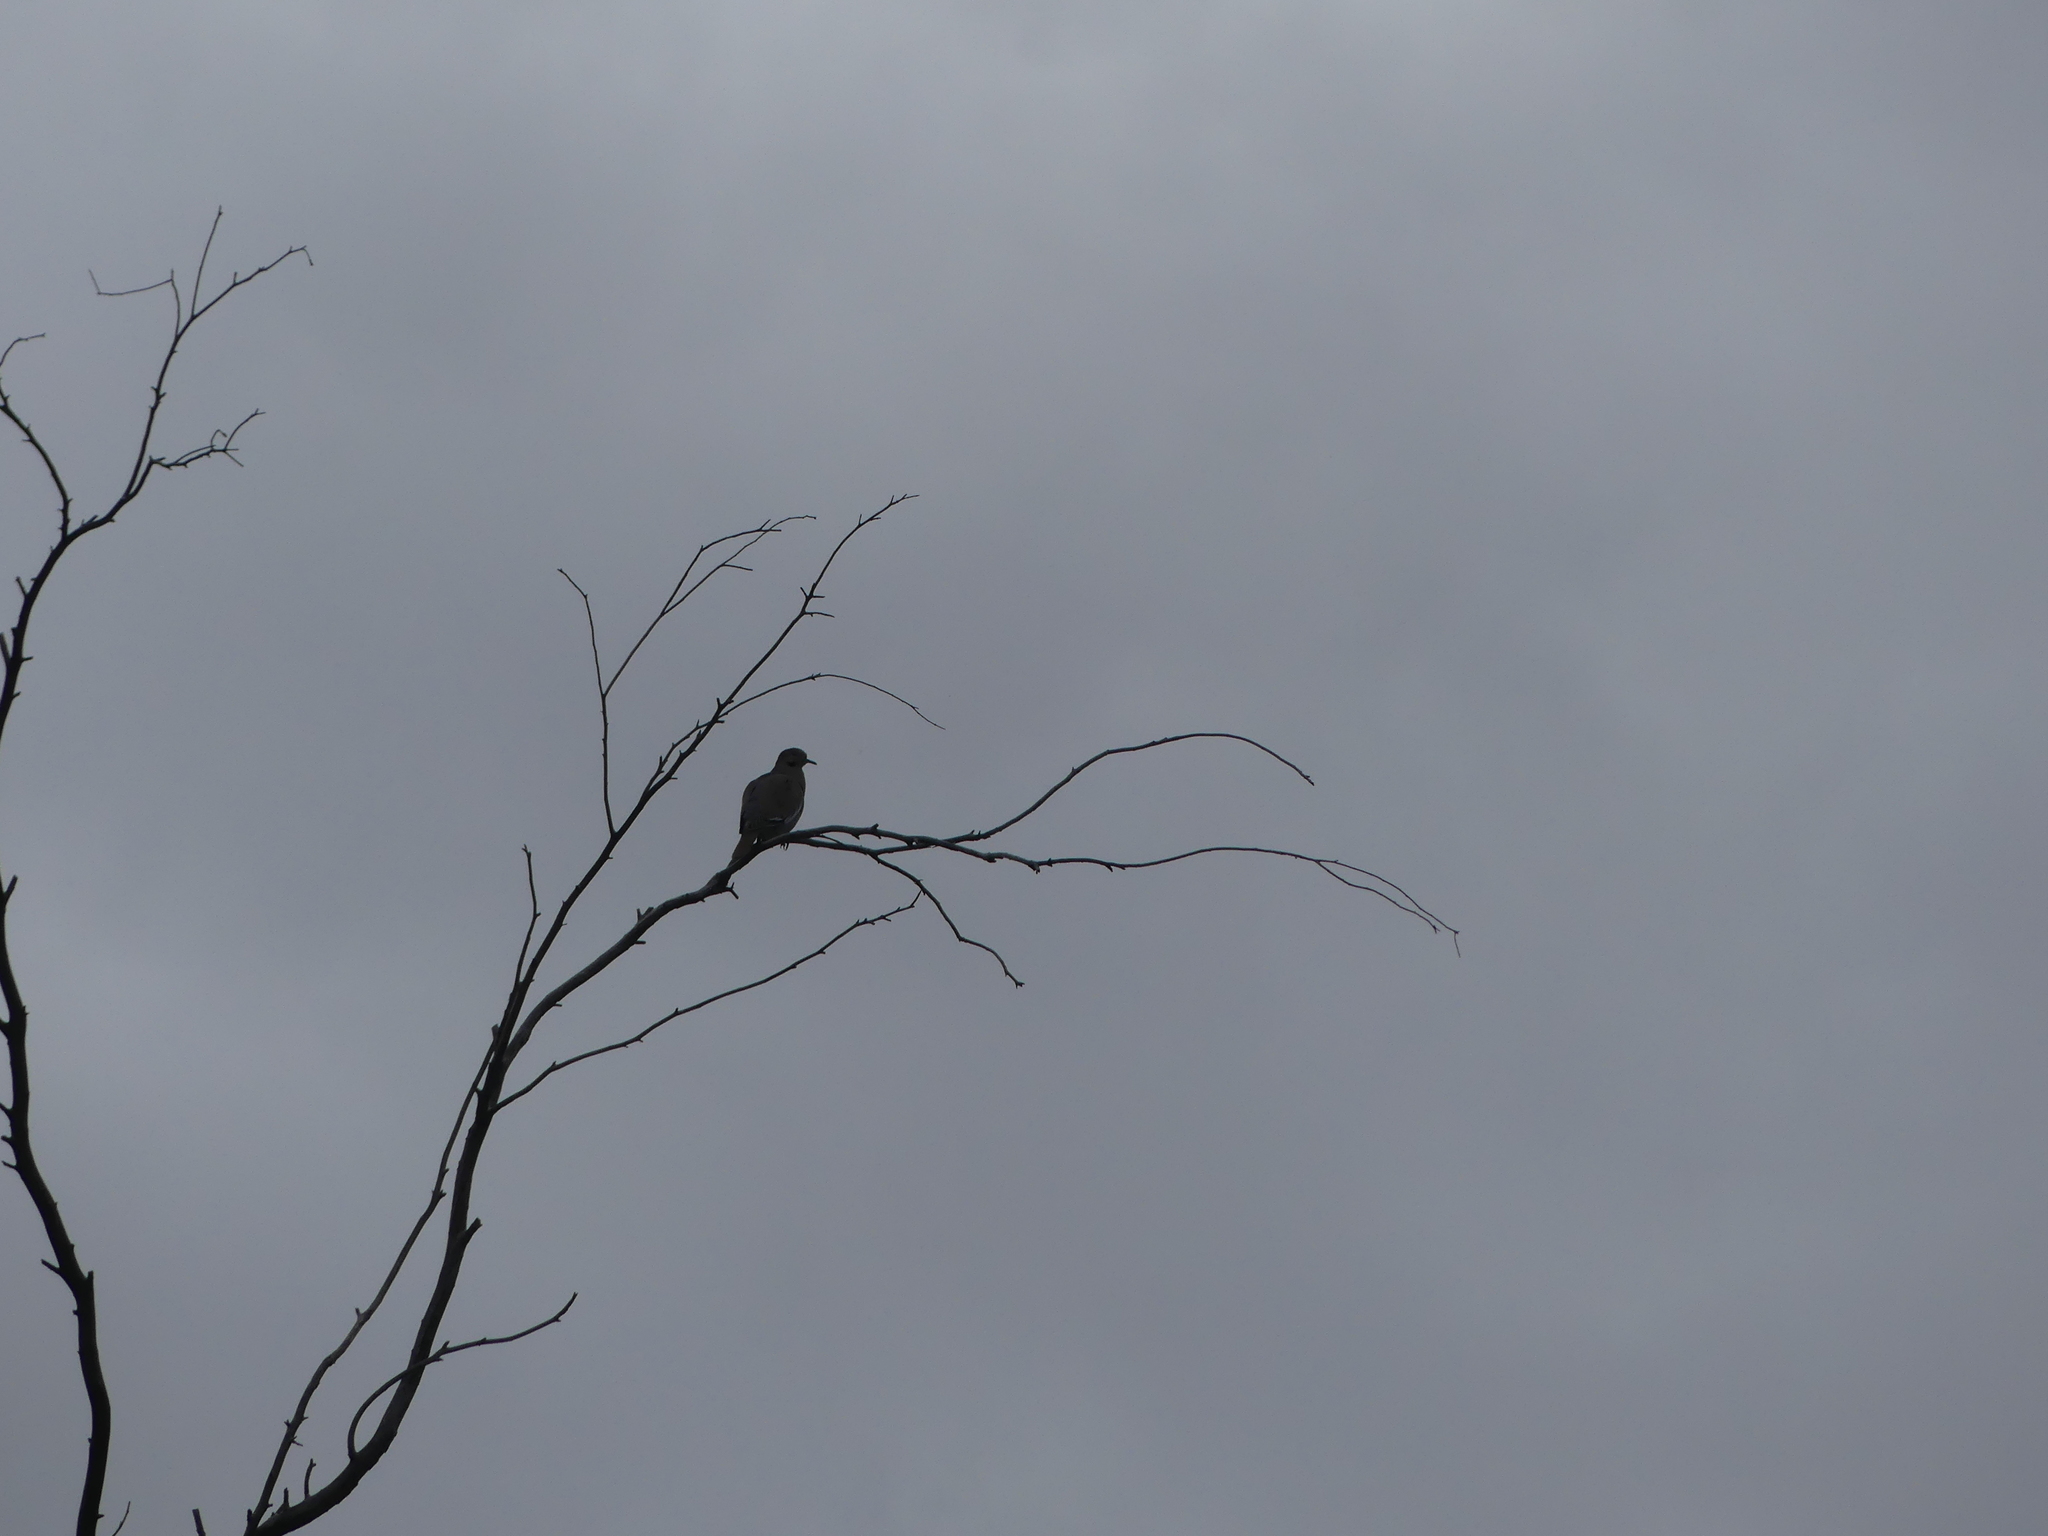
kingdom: Animalia
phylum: Chordata
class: Aves
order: Columbiformes
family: Columbidae
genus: Zenaida
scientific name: Zenaida asiatica
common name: White-winged dove
